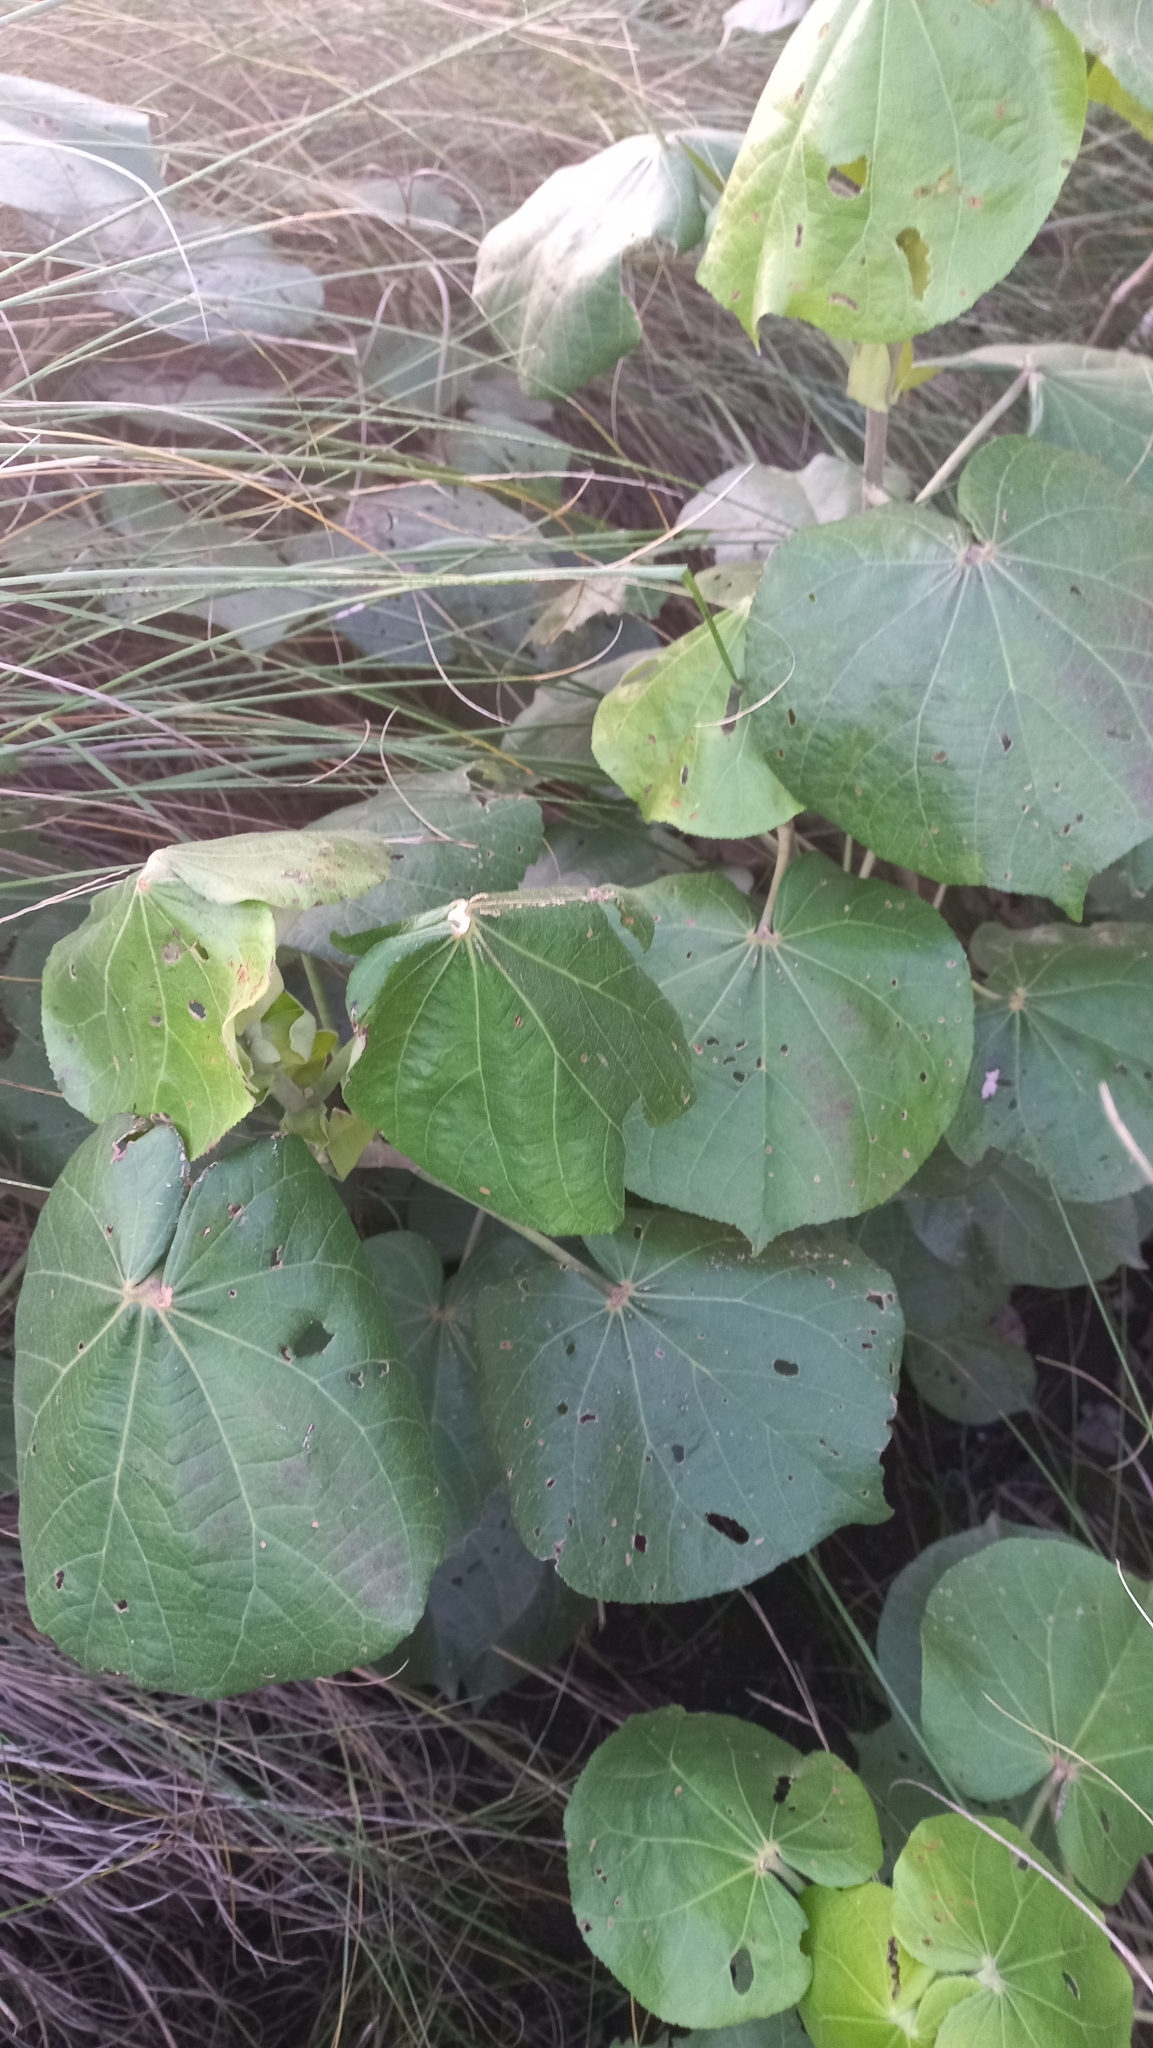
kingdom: Plantae
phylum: Tracheophyta
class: Magnoliopsida
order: Malvales
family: Malvaceae
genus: Talipariti
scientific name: Talipariti pernambucense
